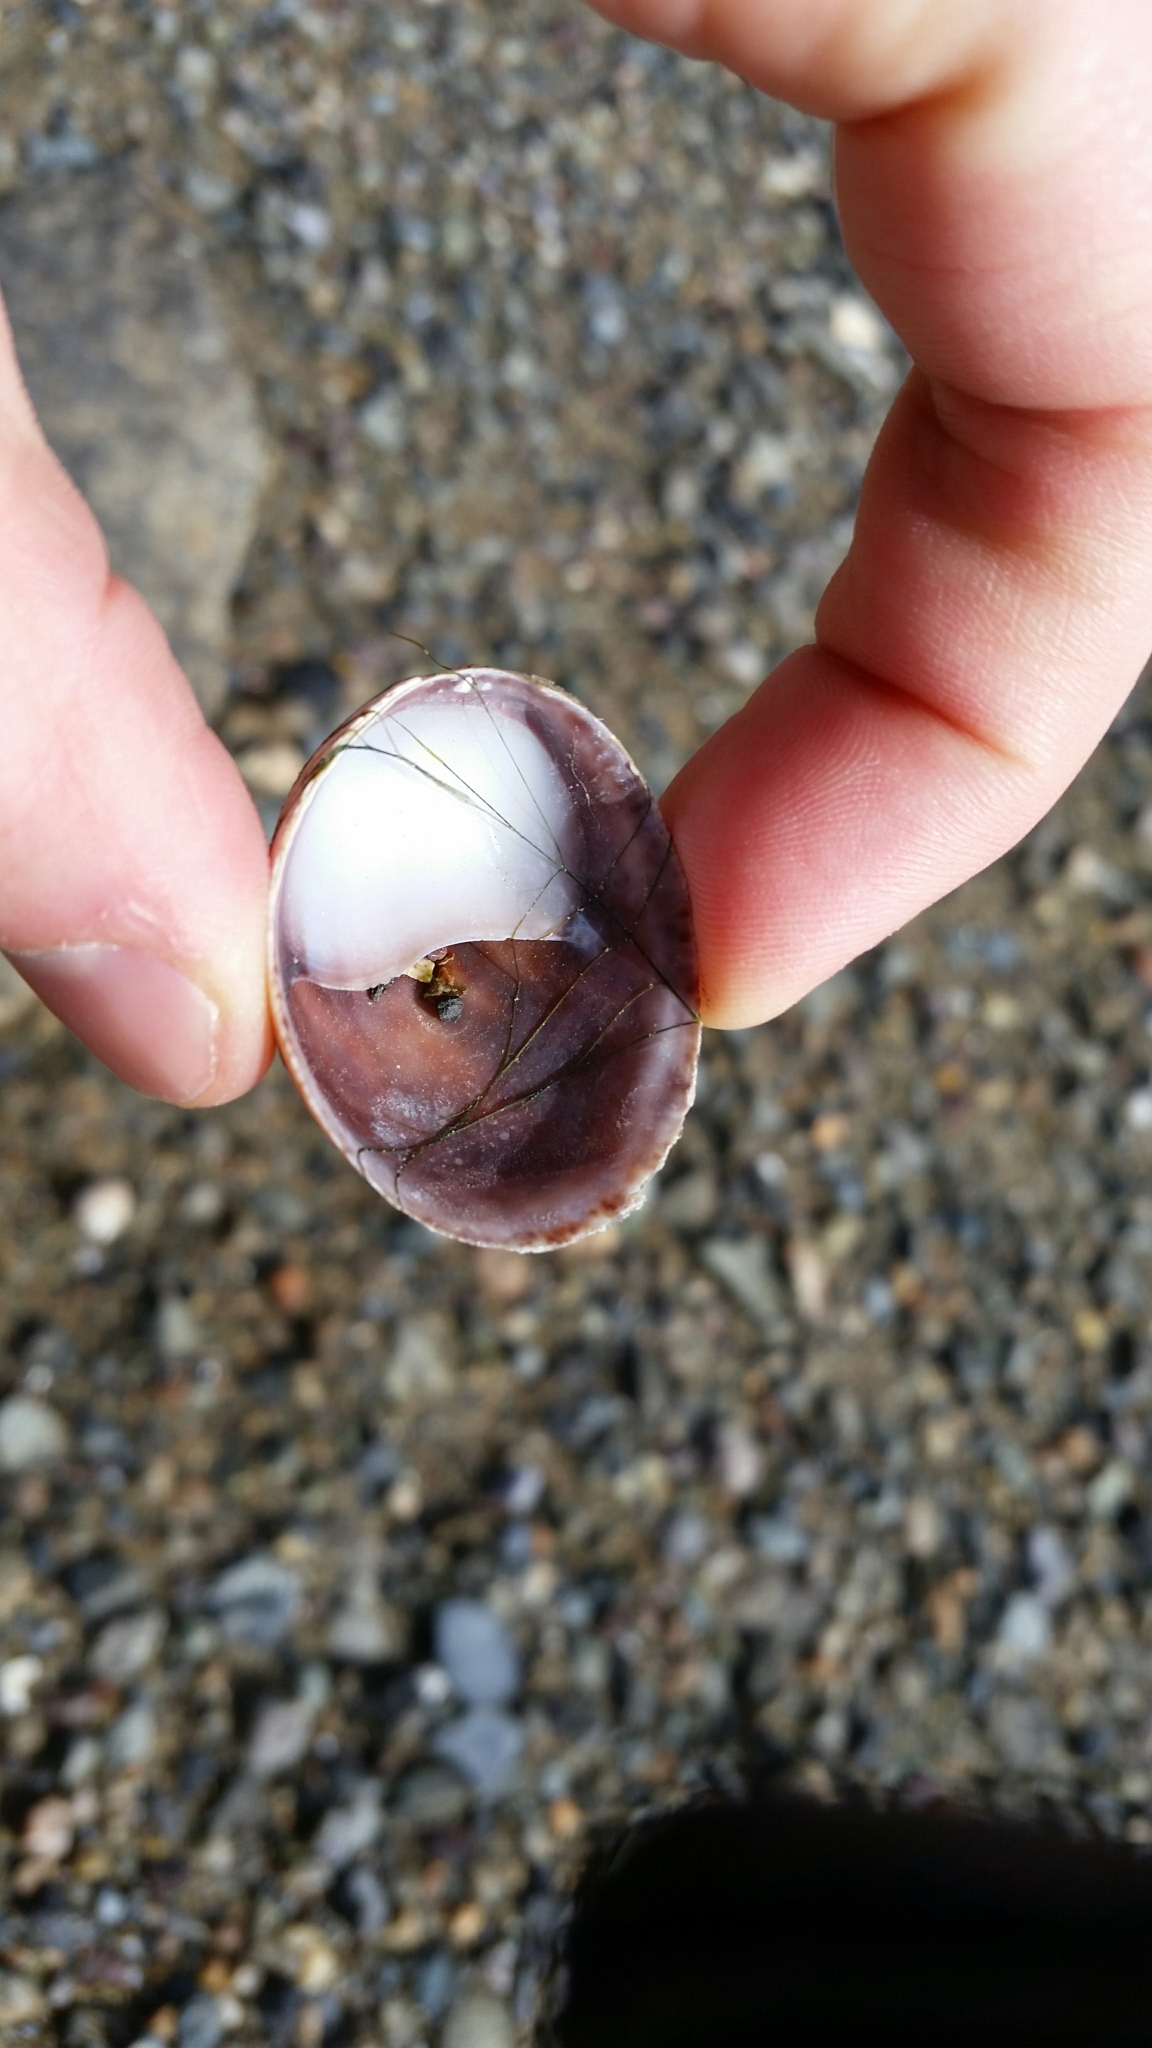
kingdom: Animalia
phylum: Mollusca
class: Gastropoda
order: Littorinimorpha
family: Calyptraeidae
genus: Crepidula
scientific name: Crepidula fornicata
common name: Slipper limpet
